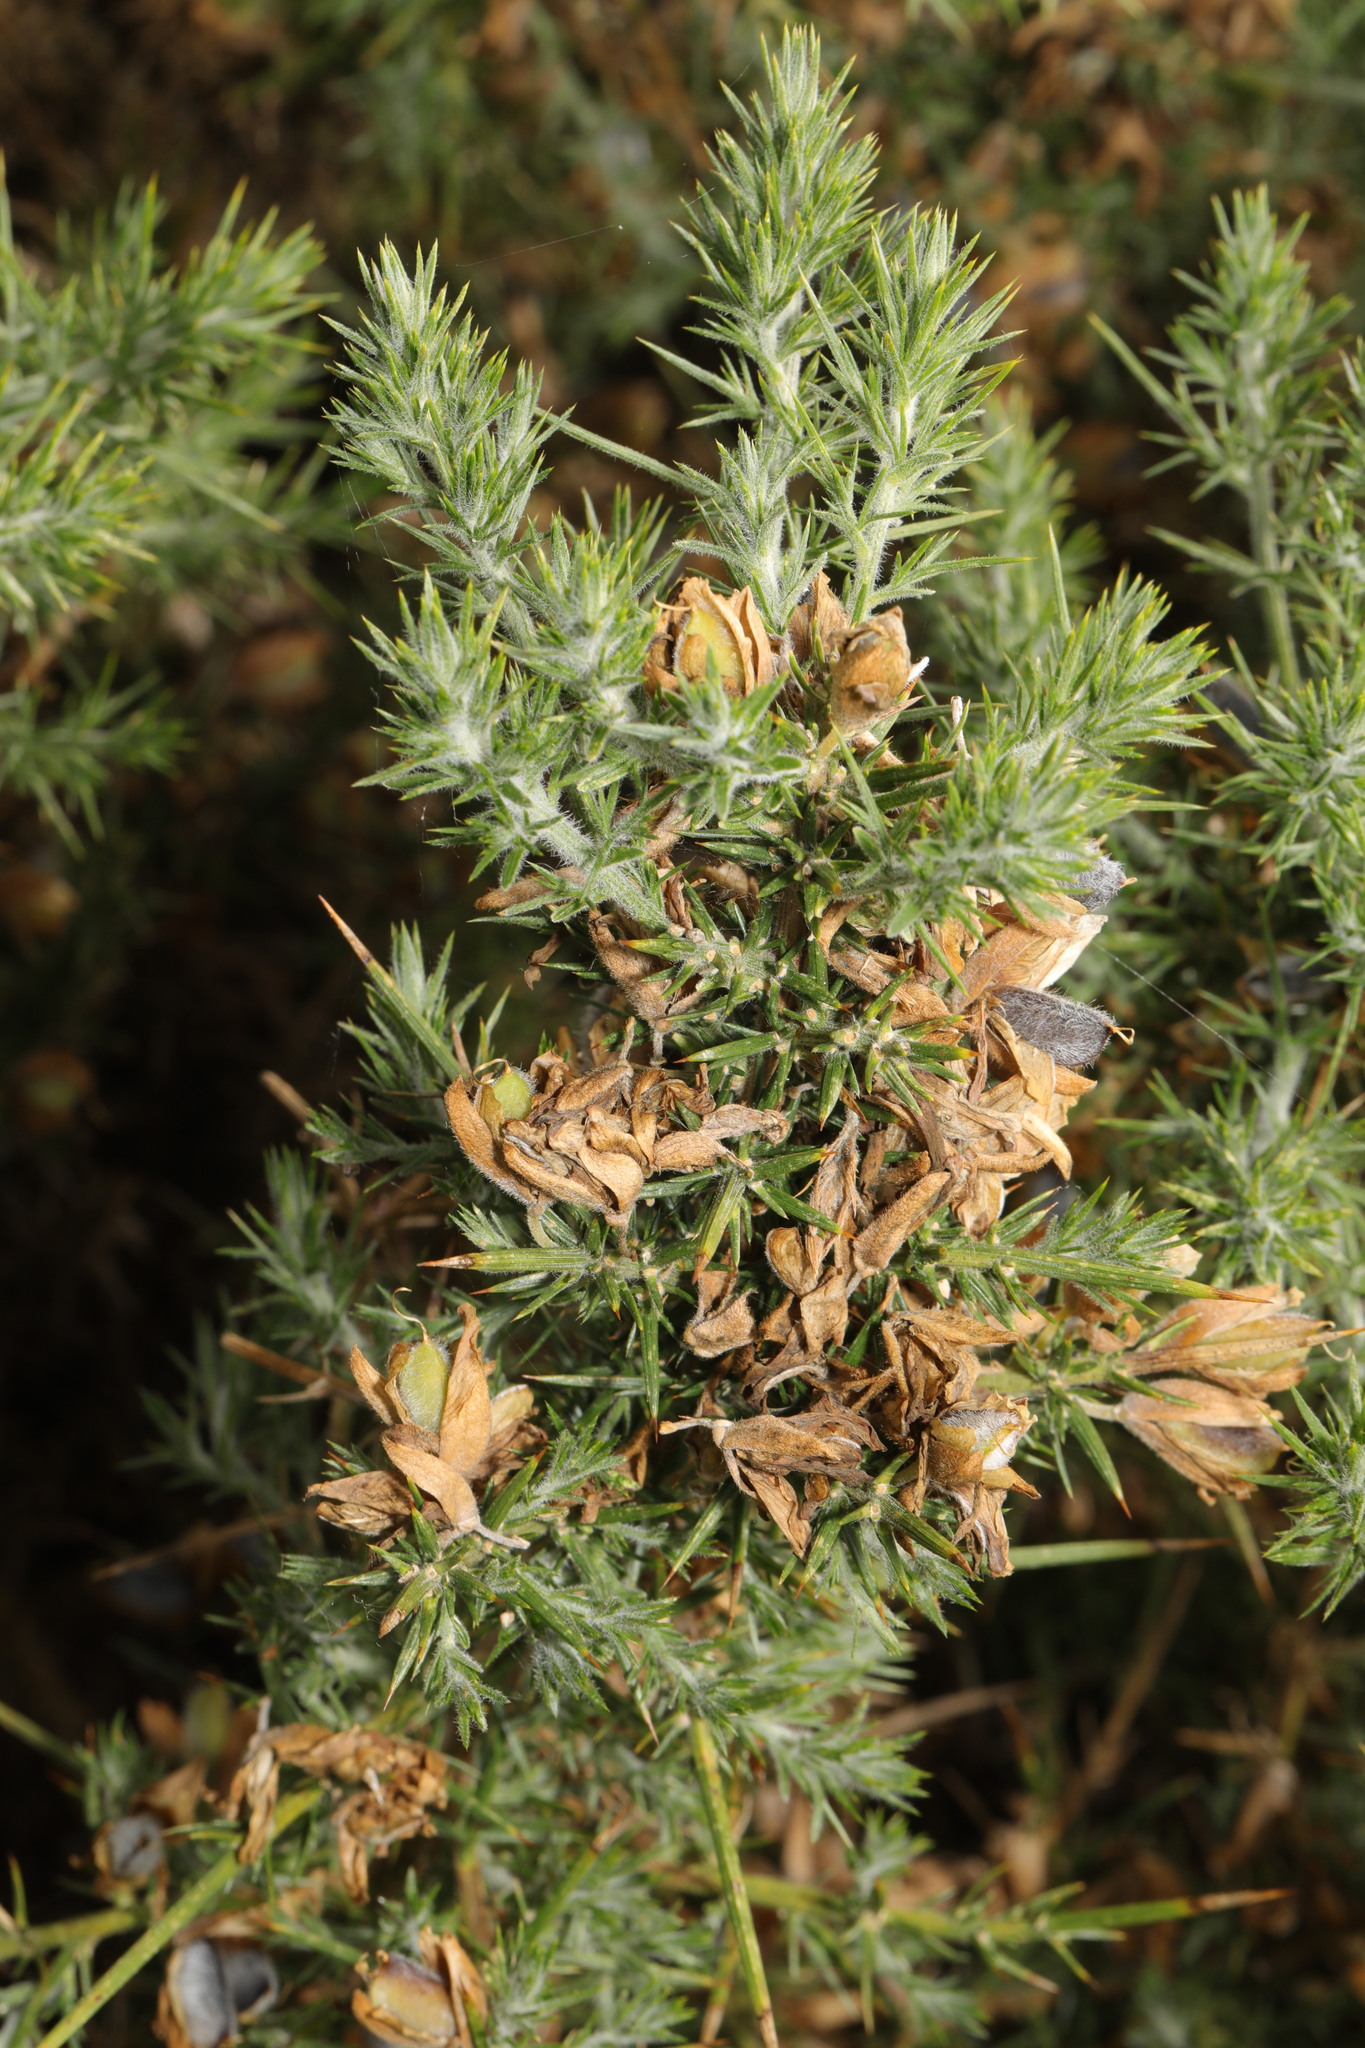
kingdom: Plantae
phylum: Tracheophyta
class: Magnoliopsida
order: Fabales
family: Fabaceae
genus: Ulex
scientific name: Ulex europaeus
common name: Common gorse
